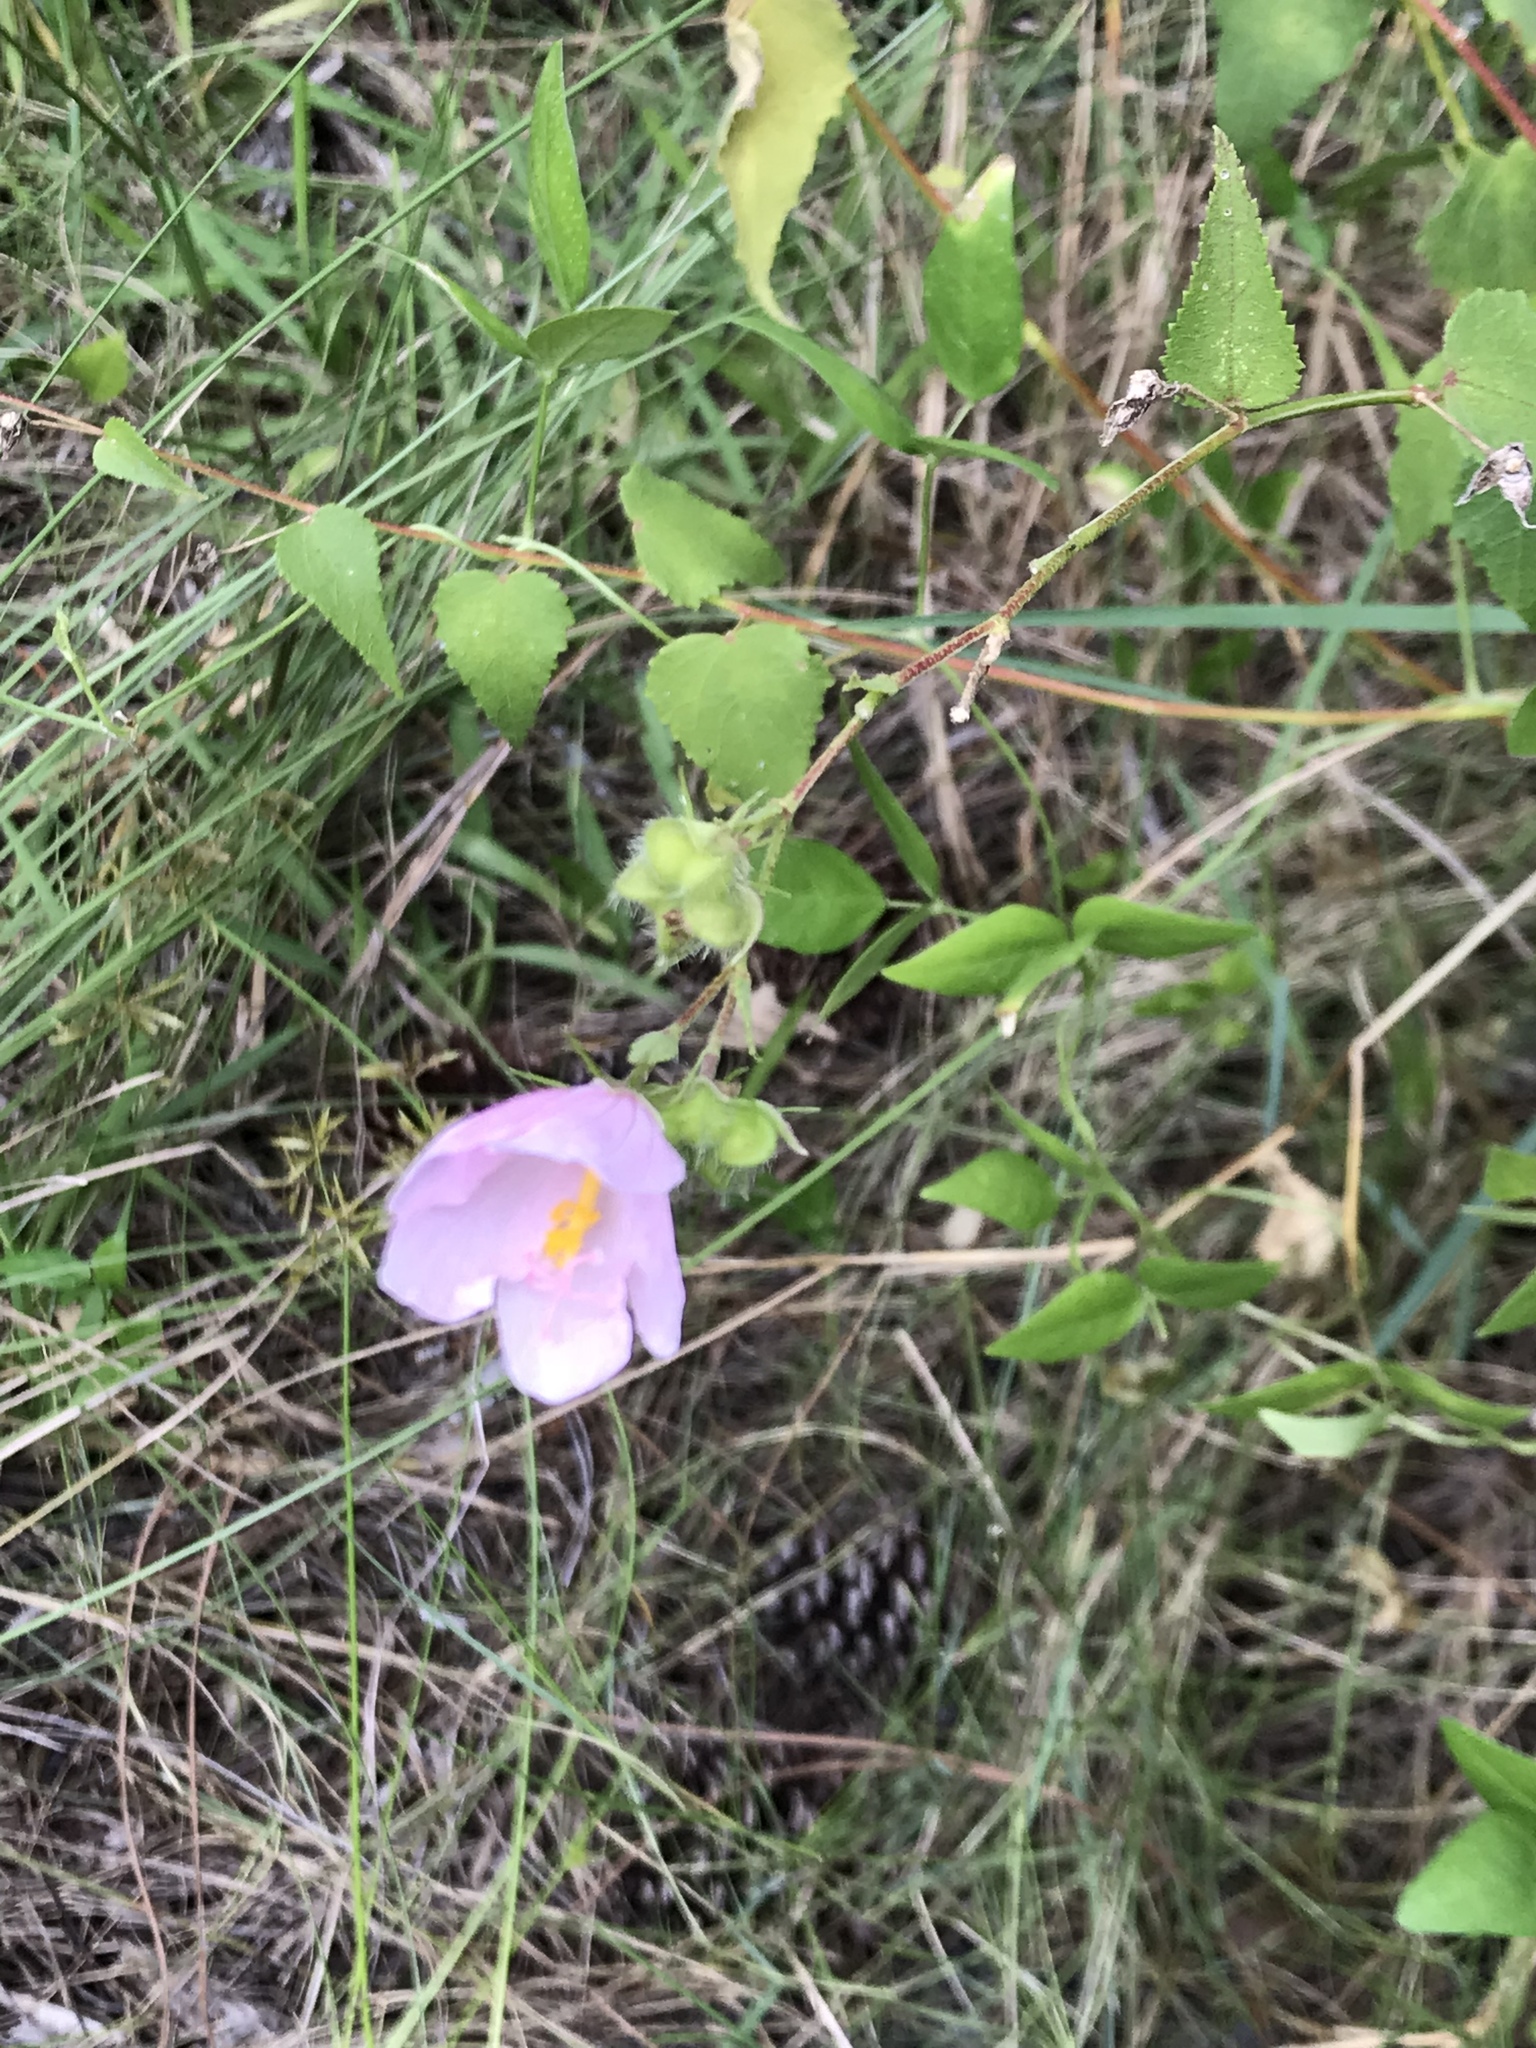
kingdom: Plantae
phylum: Tracheophyta
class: Magnoliopsida
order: Malvales
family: Malvaceae
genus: Kosteletzkya
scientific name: Kosteletzkya pentacarpos
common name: Virginia saltmarsh mallow
